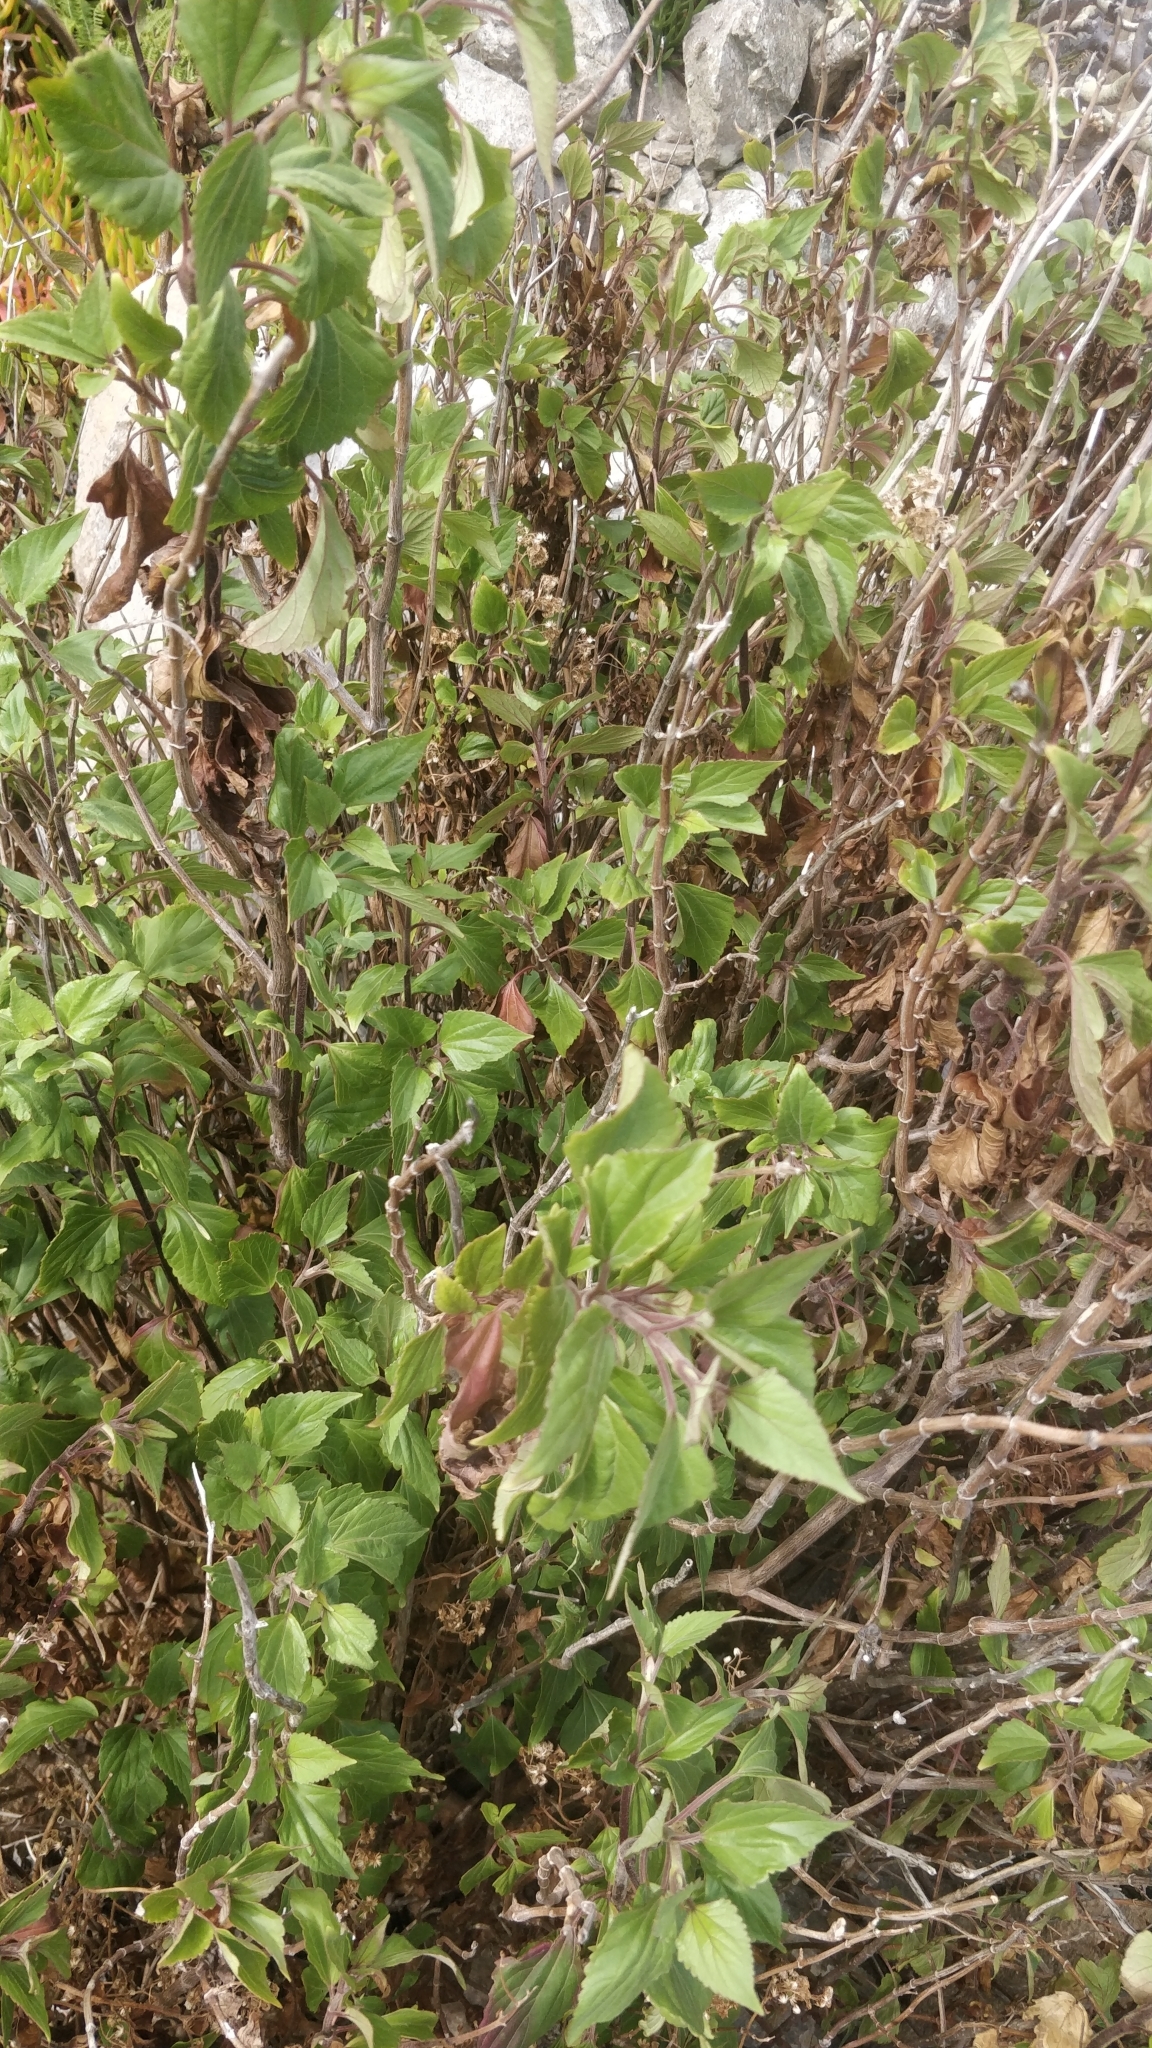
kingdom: Plantae
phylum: Tracheophyta
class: Magnoliopsida
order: Asterales
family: Asteraceae
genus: Ageratina
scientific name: Ageratina adenophora
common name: Sticky snakeroot
